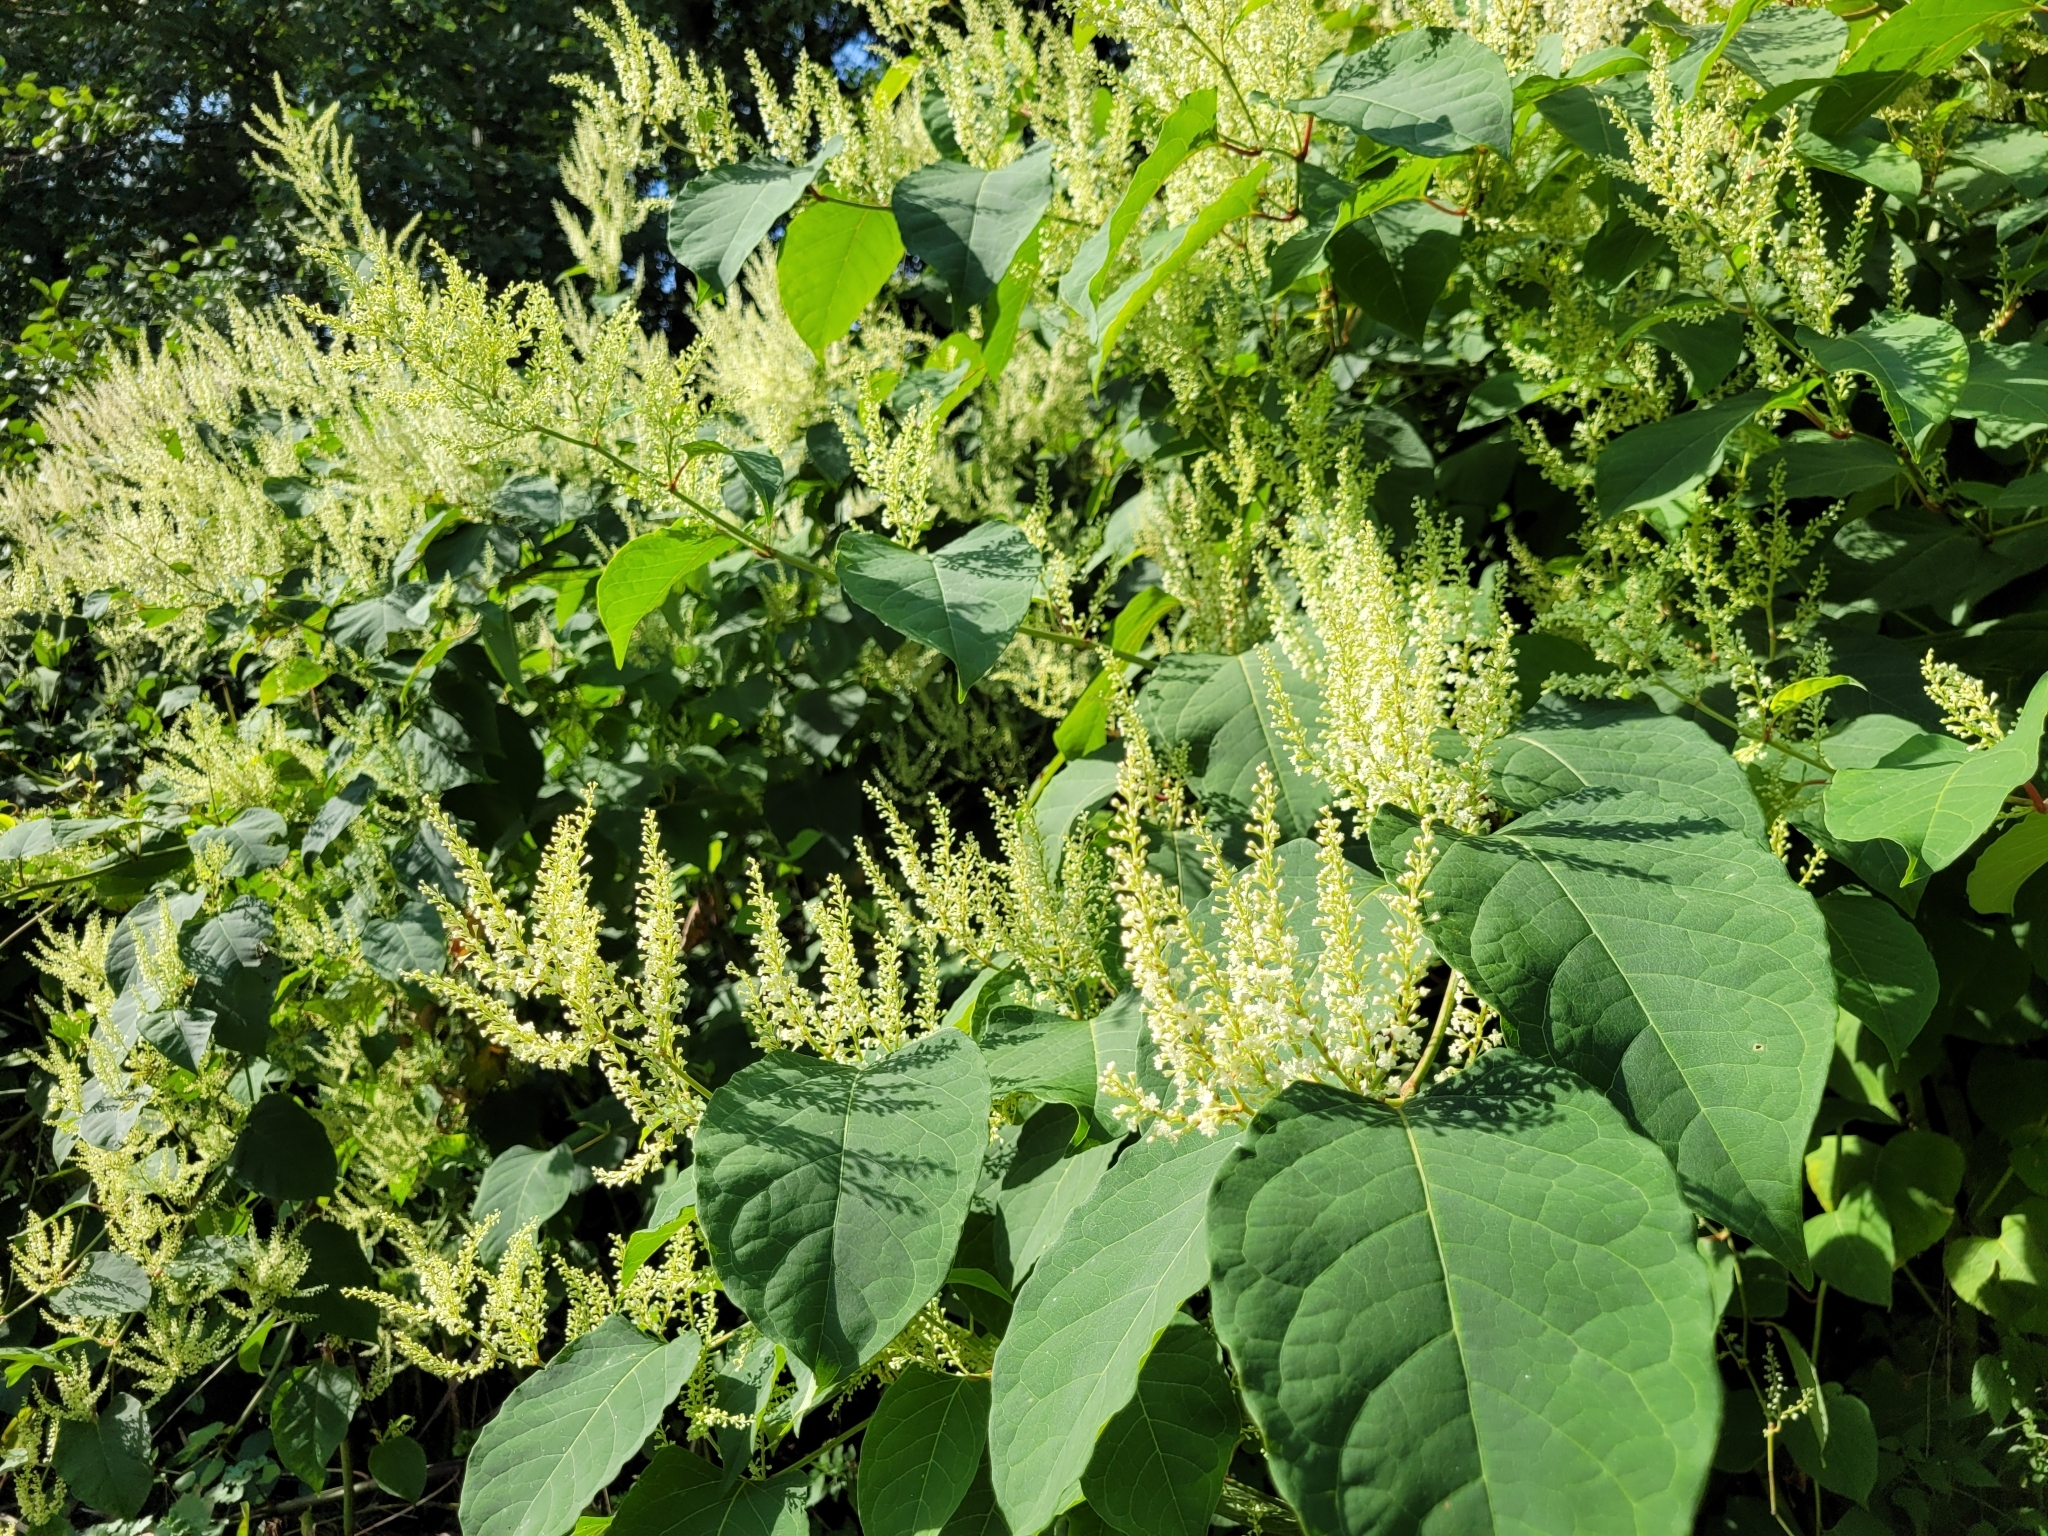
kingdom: Plantae
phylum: Tracheophyta
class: Magnoliopsida
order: Caryophyllales
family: Polygonaceae
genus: Reynoutria
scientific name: Reynoutria japonica
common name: Japanese knotweed
